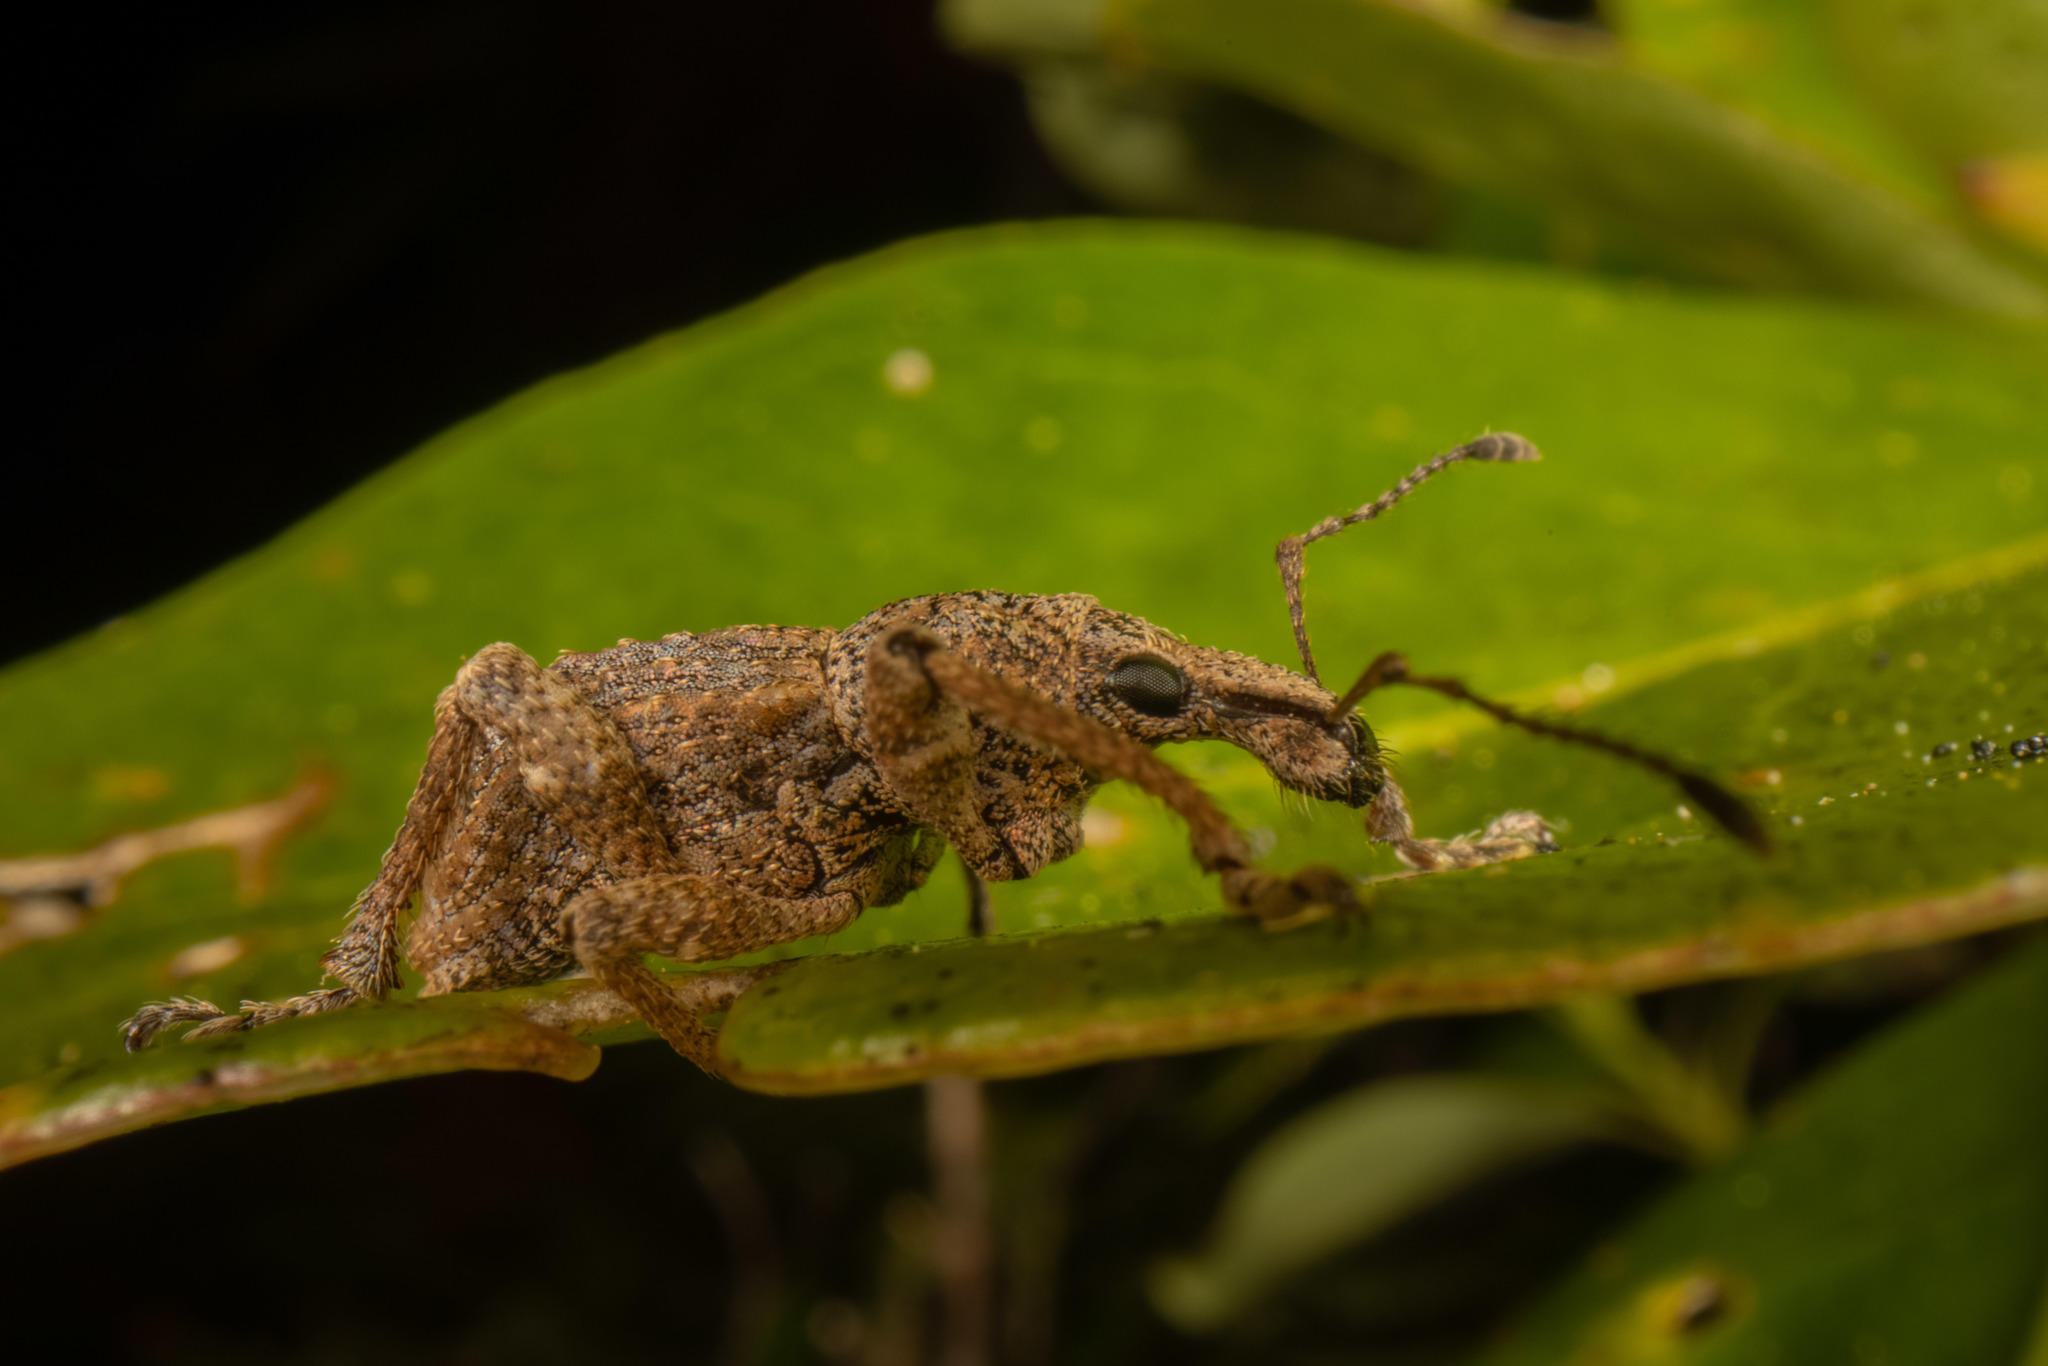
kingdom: Animalia
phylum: Arthropoda
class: Insecta
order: Coleoptera
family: Curculionidae
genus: Catoptes
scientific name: Catoptes binodis
